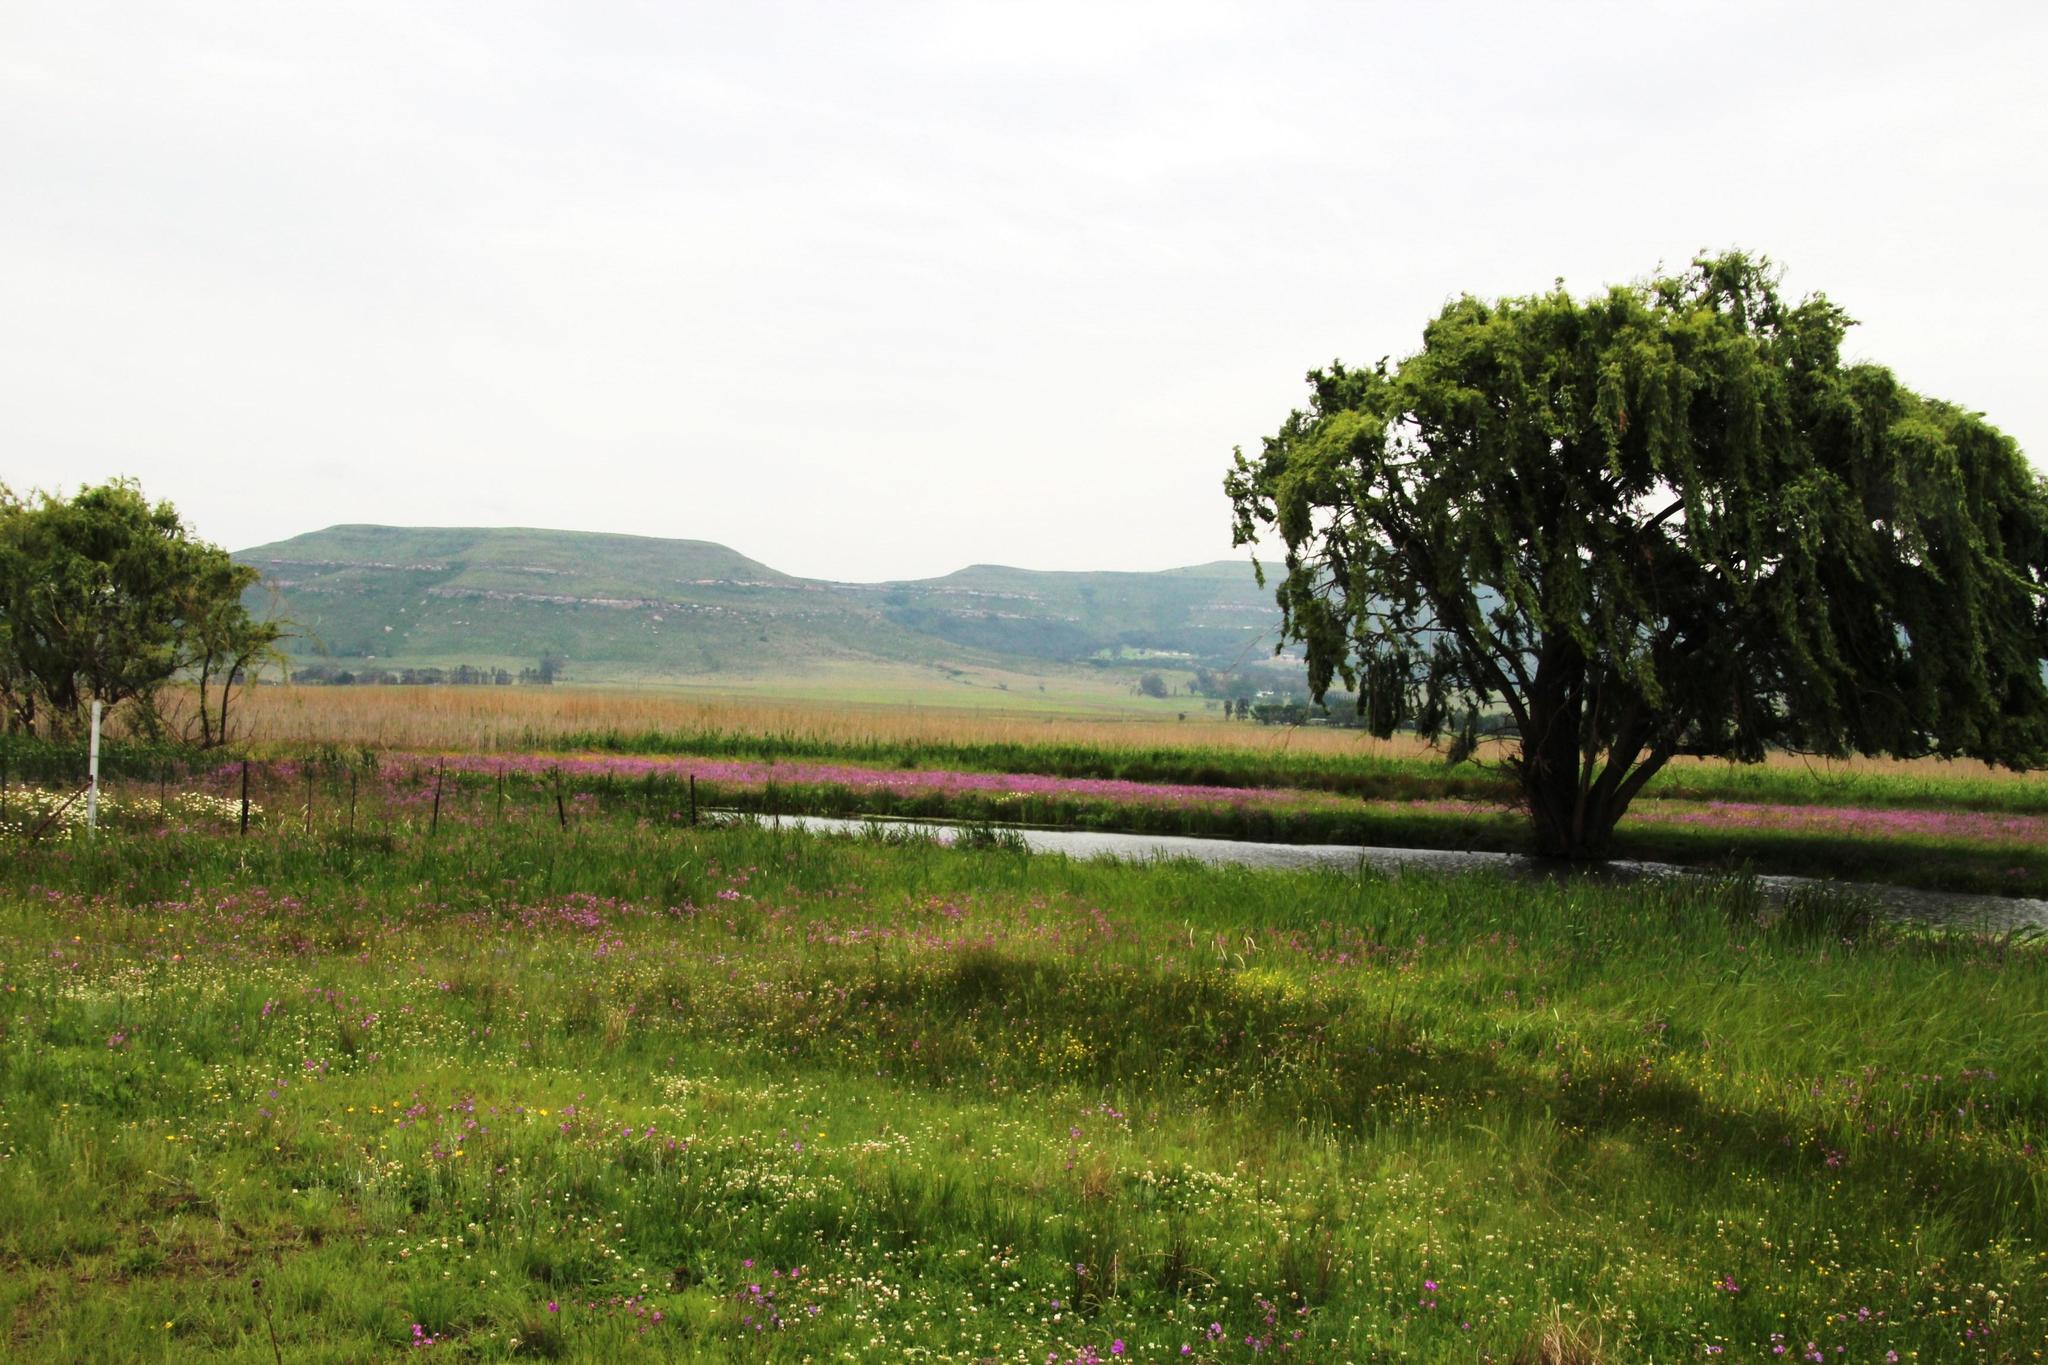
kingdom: Plantae
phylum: Tracheophyta
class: Magnoliopsida
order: Asterales
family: Asteraceae
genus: Senecio
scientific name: Senecio polyodon
